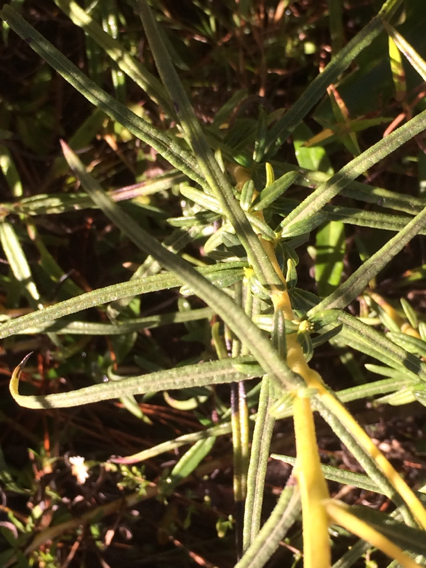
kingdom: Plantae
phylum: Tracheophyta
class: Magnoliopsida
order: Asterales
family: Asteraceae
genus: Helianthus
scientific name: Helianthus angustifolius
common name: Swamp sunflower
